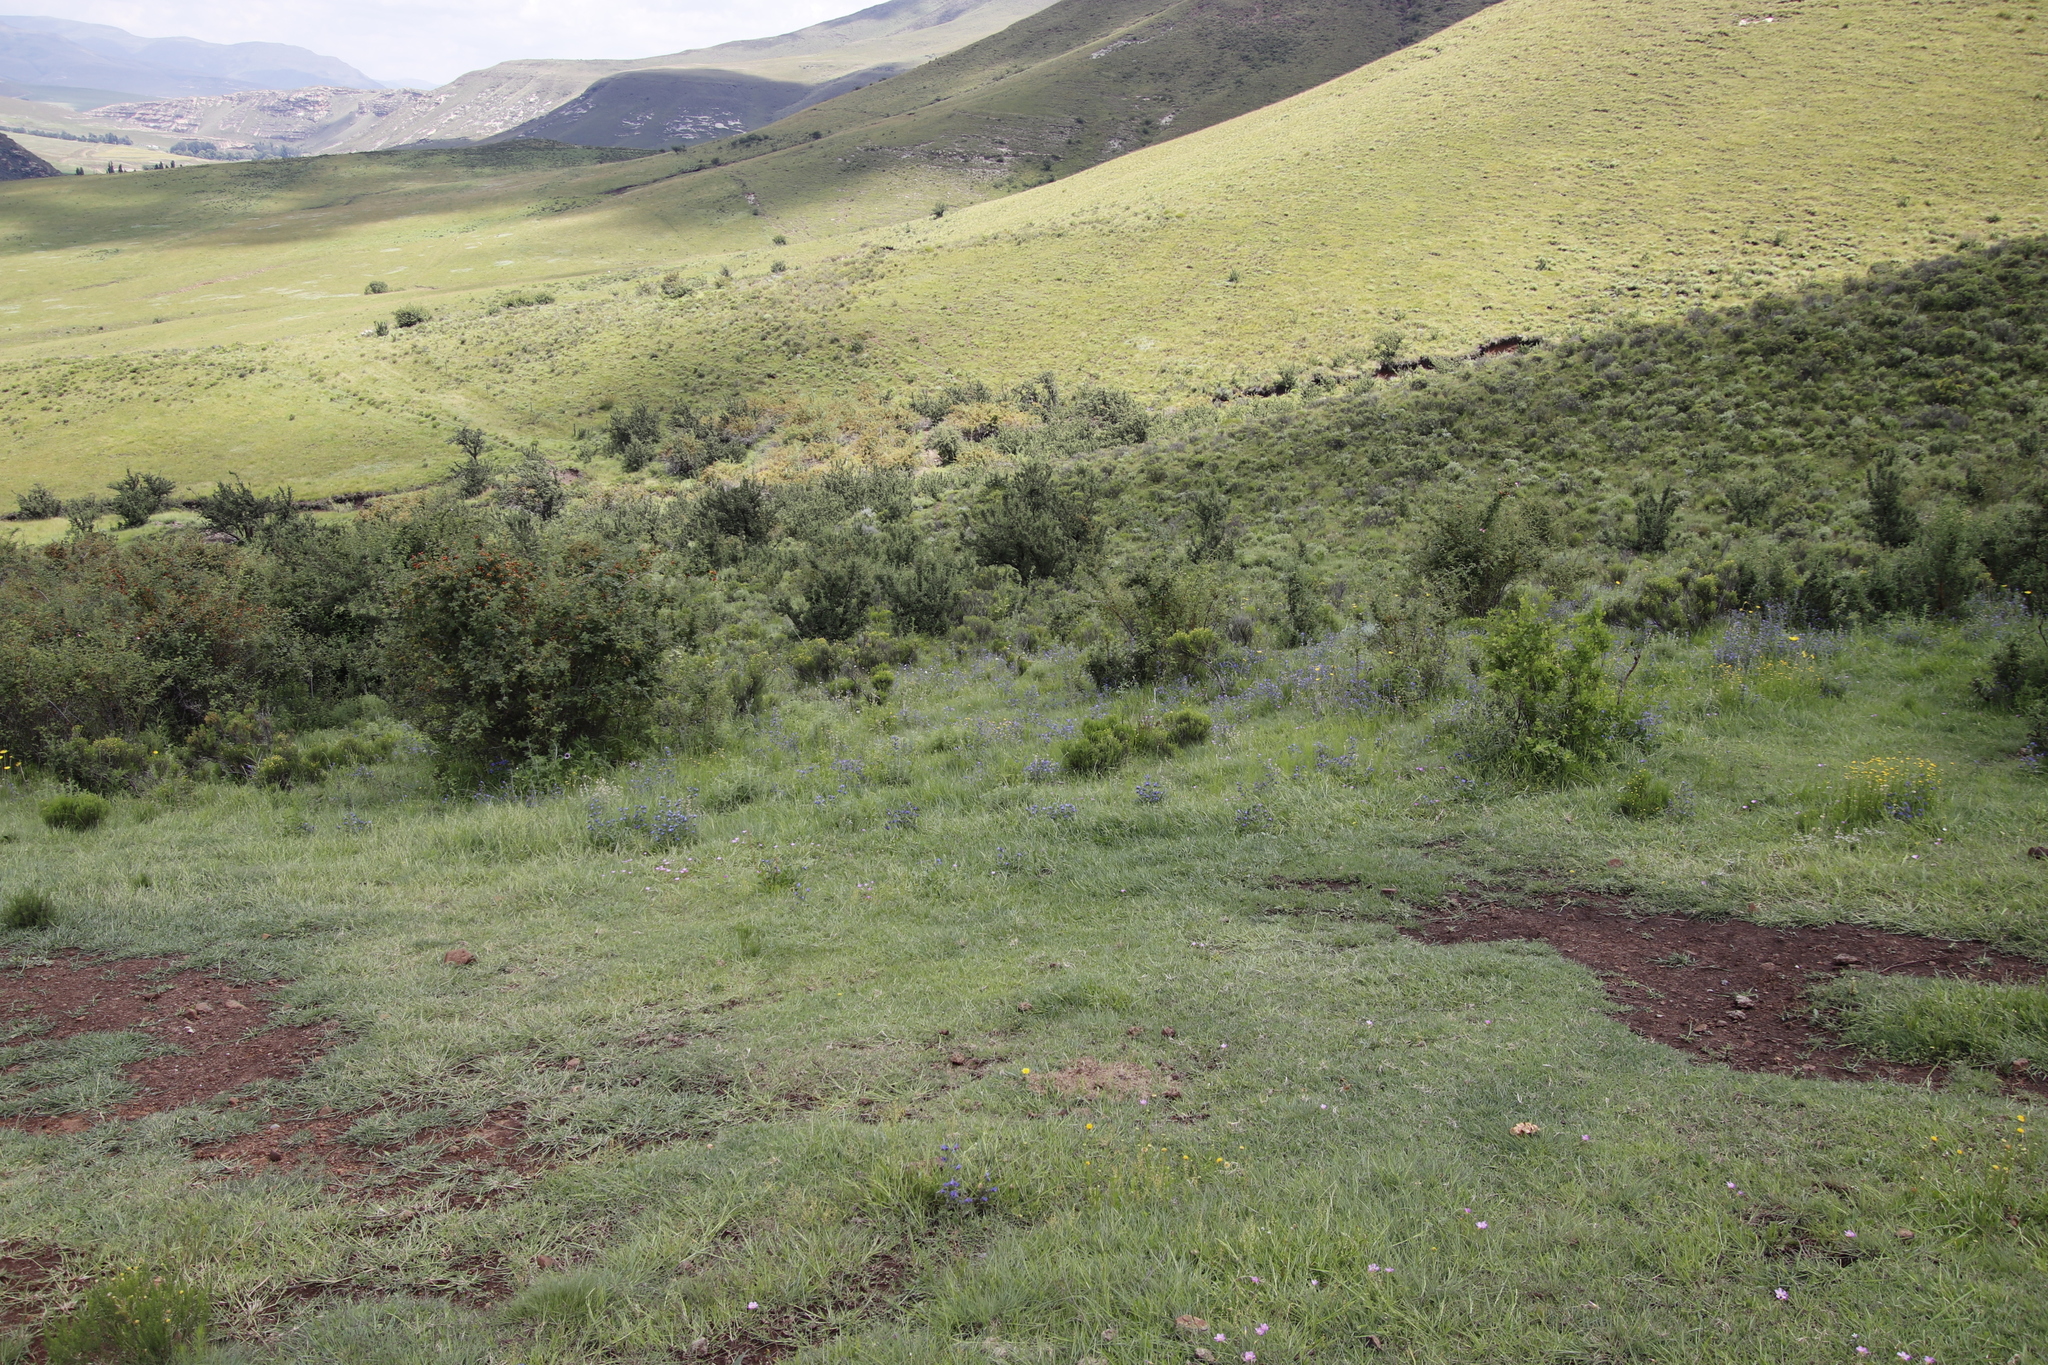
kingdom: Plantae
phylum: Tracheophyta
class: Magnoliopsida
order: Rosales
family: Rosaceae
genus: Leucosidea
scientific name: Leucosidea sericea
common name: Oldwood
